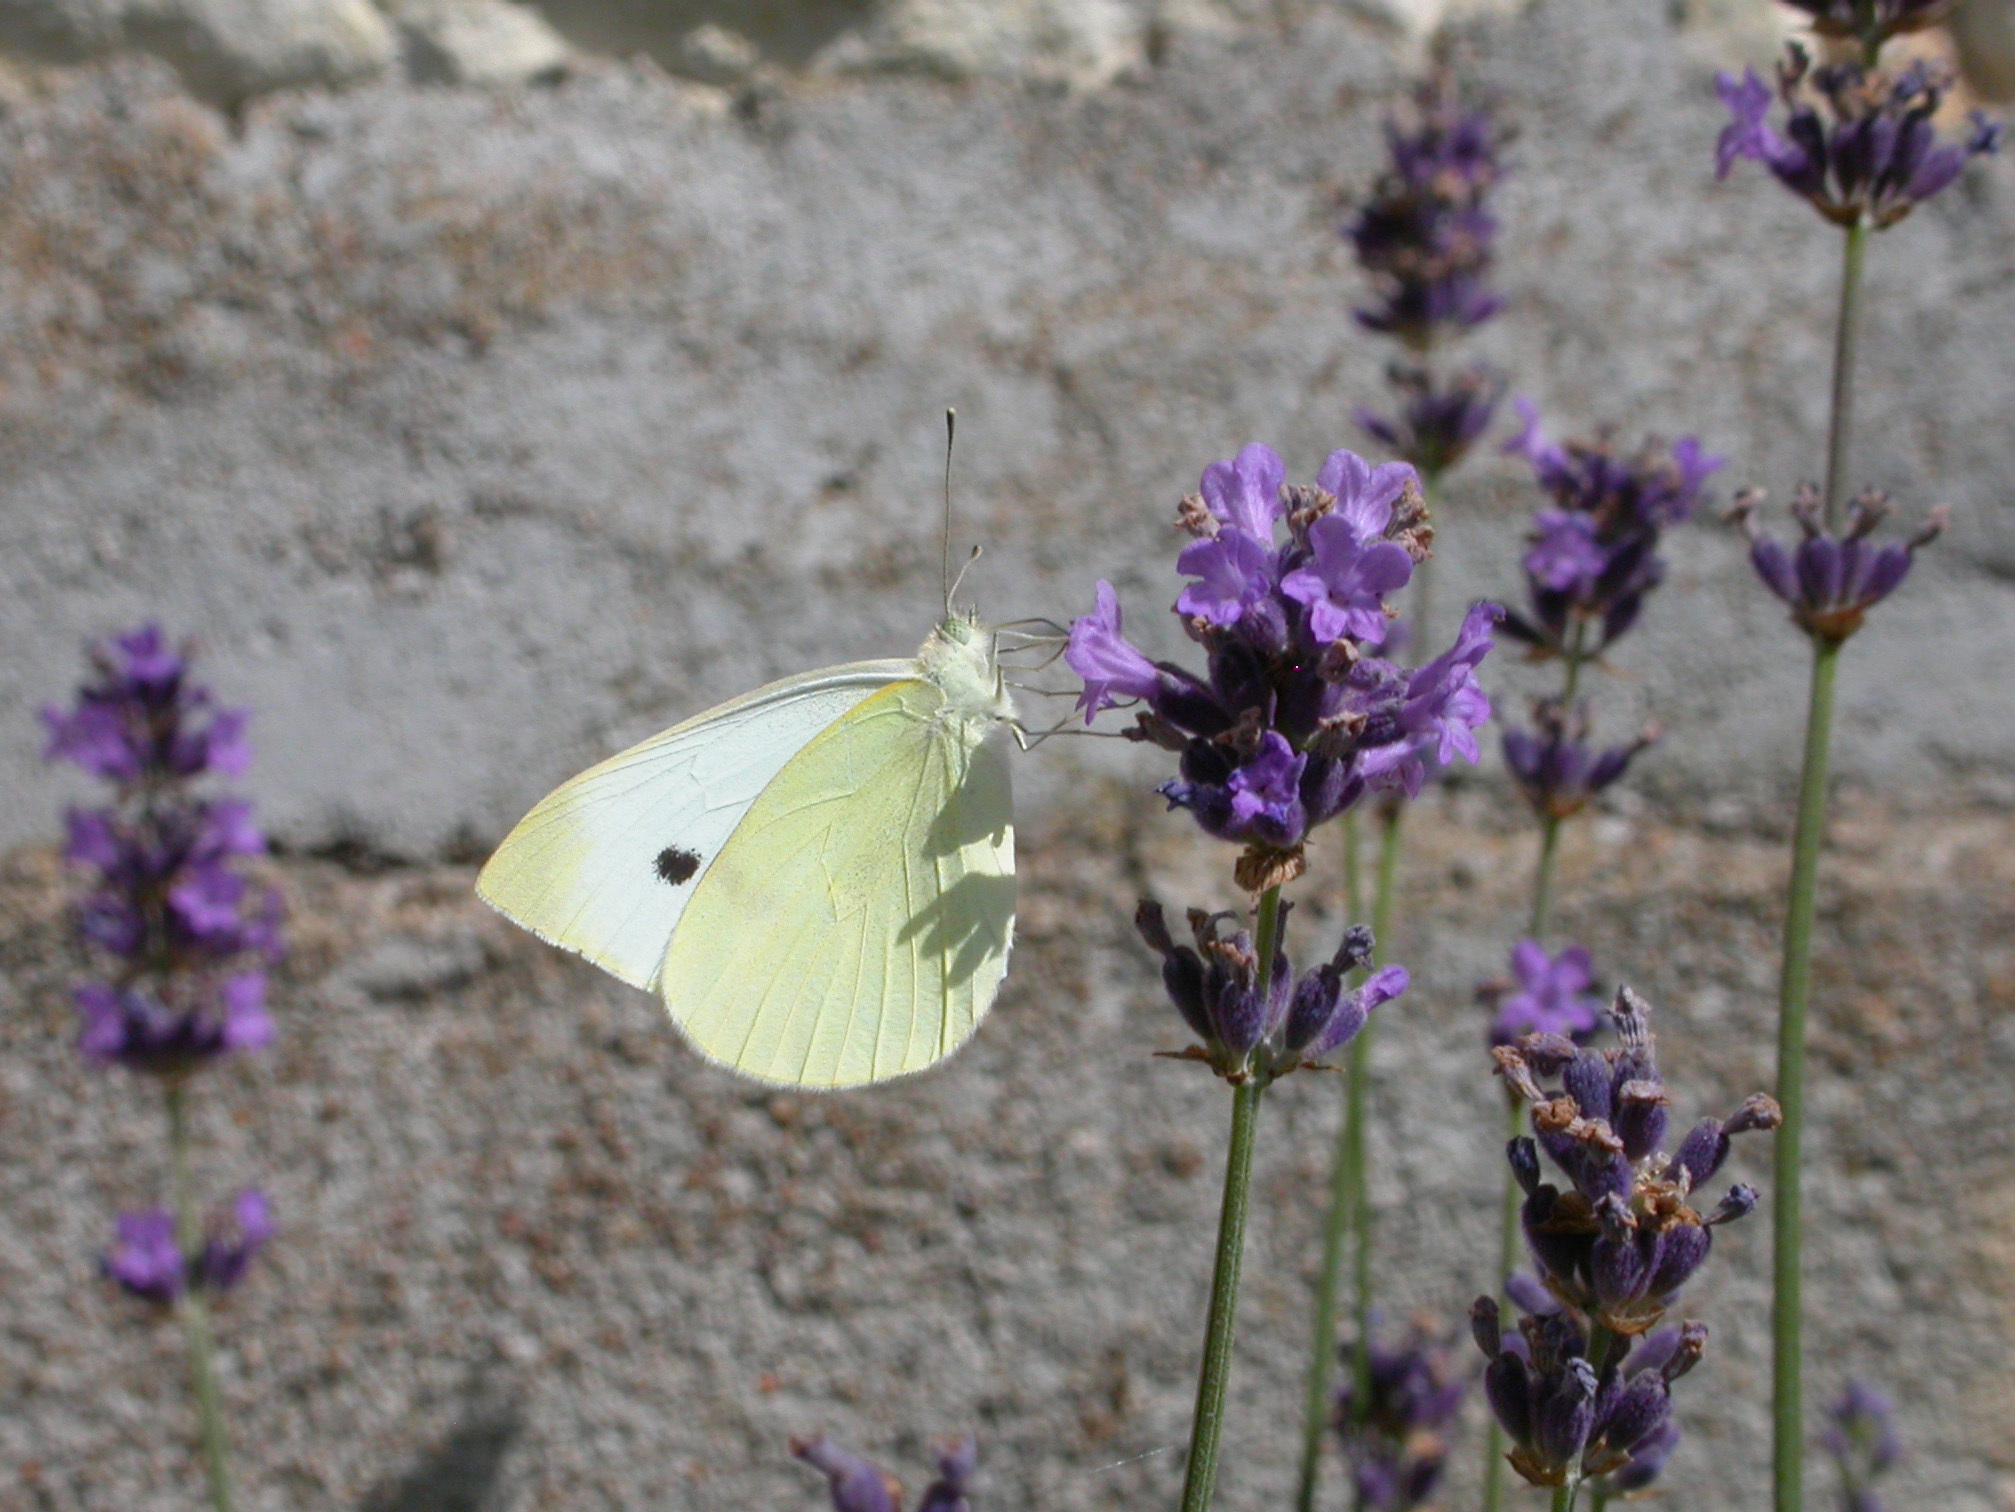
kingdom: Animalia
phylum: Arthropoda
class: Insecta
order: Lepidoptera
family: Pieridae
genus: Pieris
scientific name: Pieris rapae
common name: Small white
